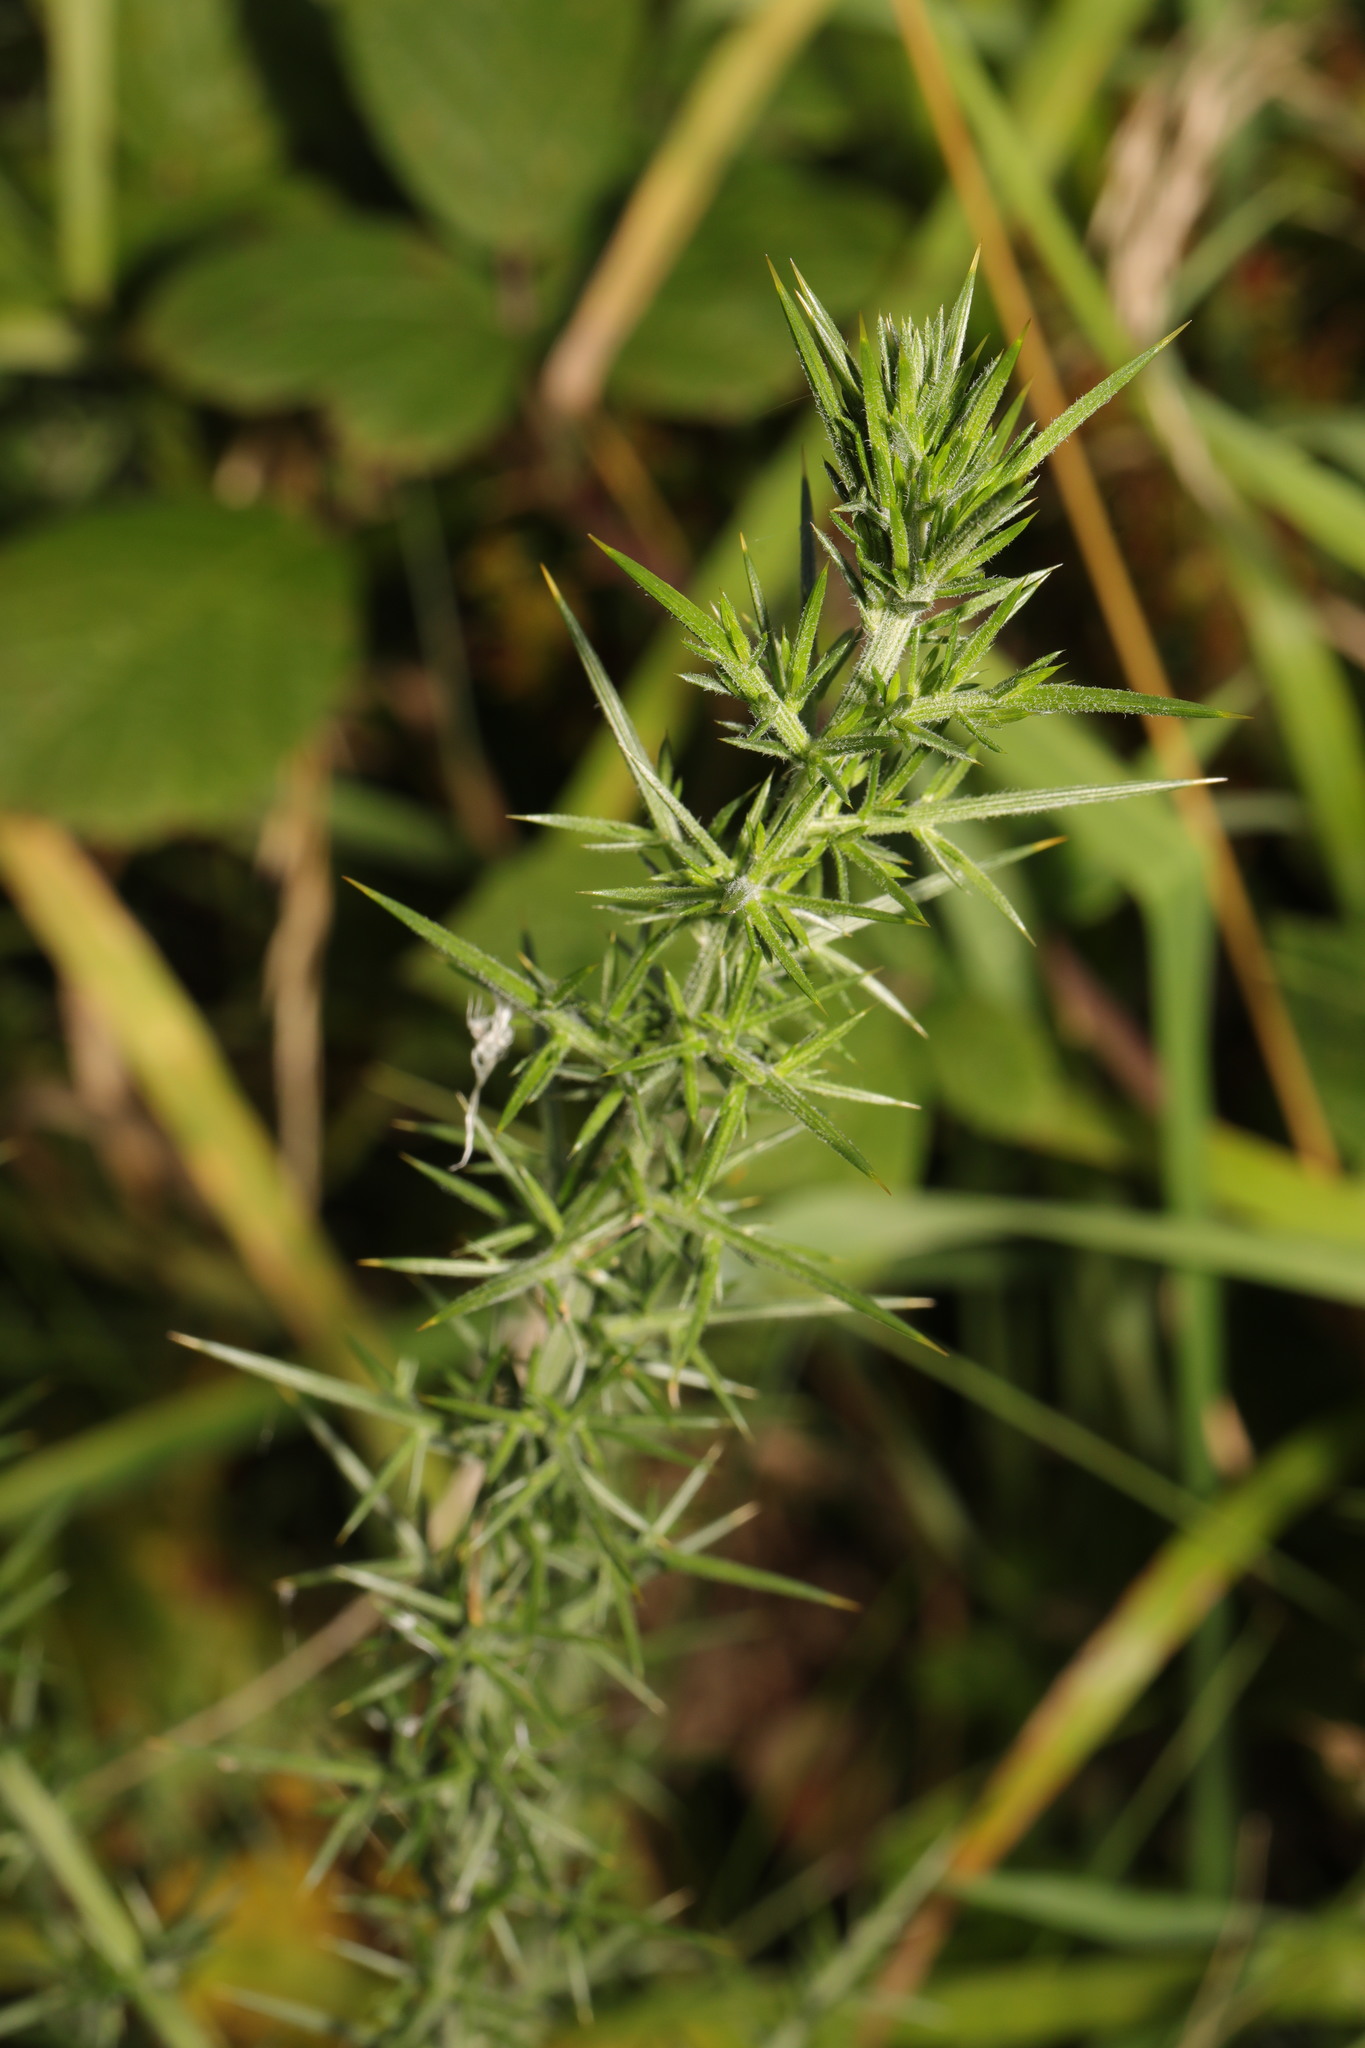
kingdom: Plantae
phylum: Tracheophyta
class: Magnoliopsida
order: Fabales
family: Fabaceae
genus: Ulex
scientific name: Ulex europaeus
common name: Common gorse
